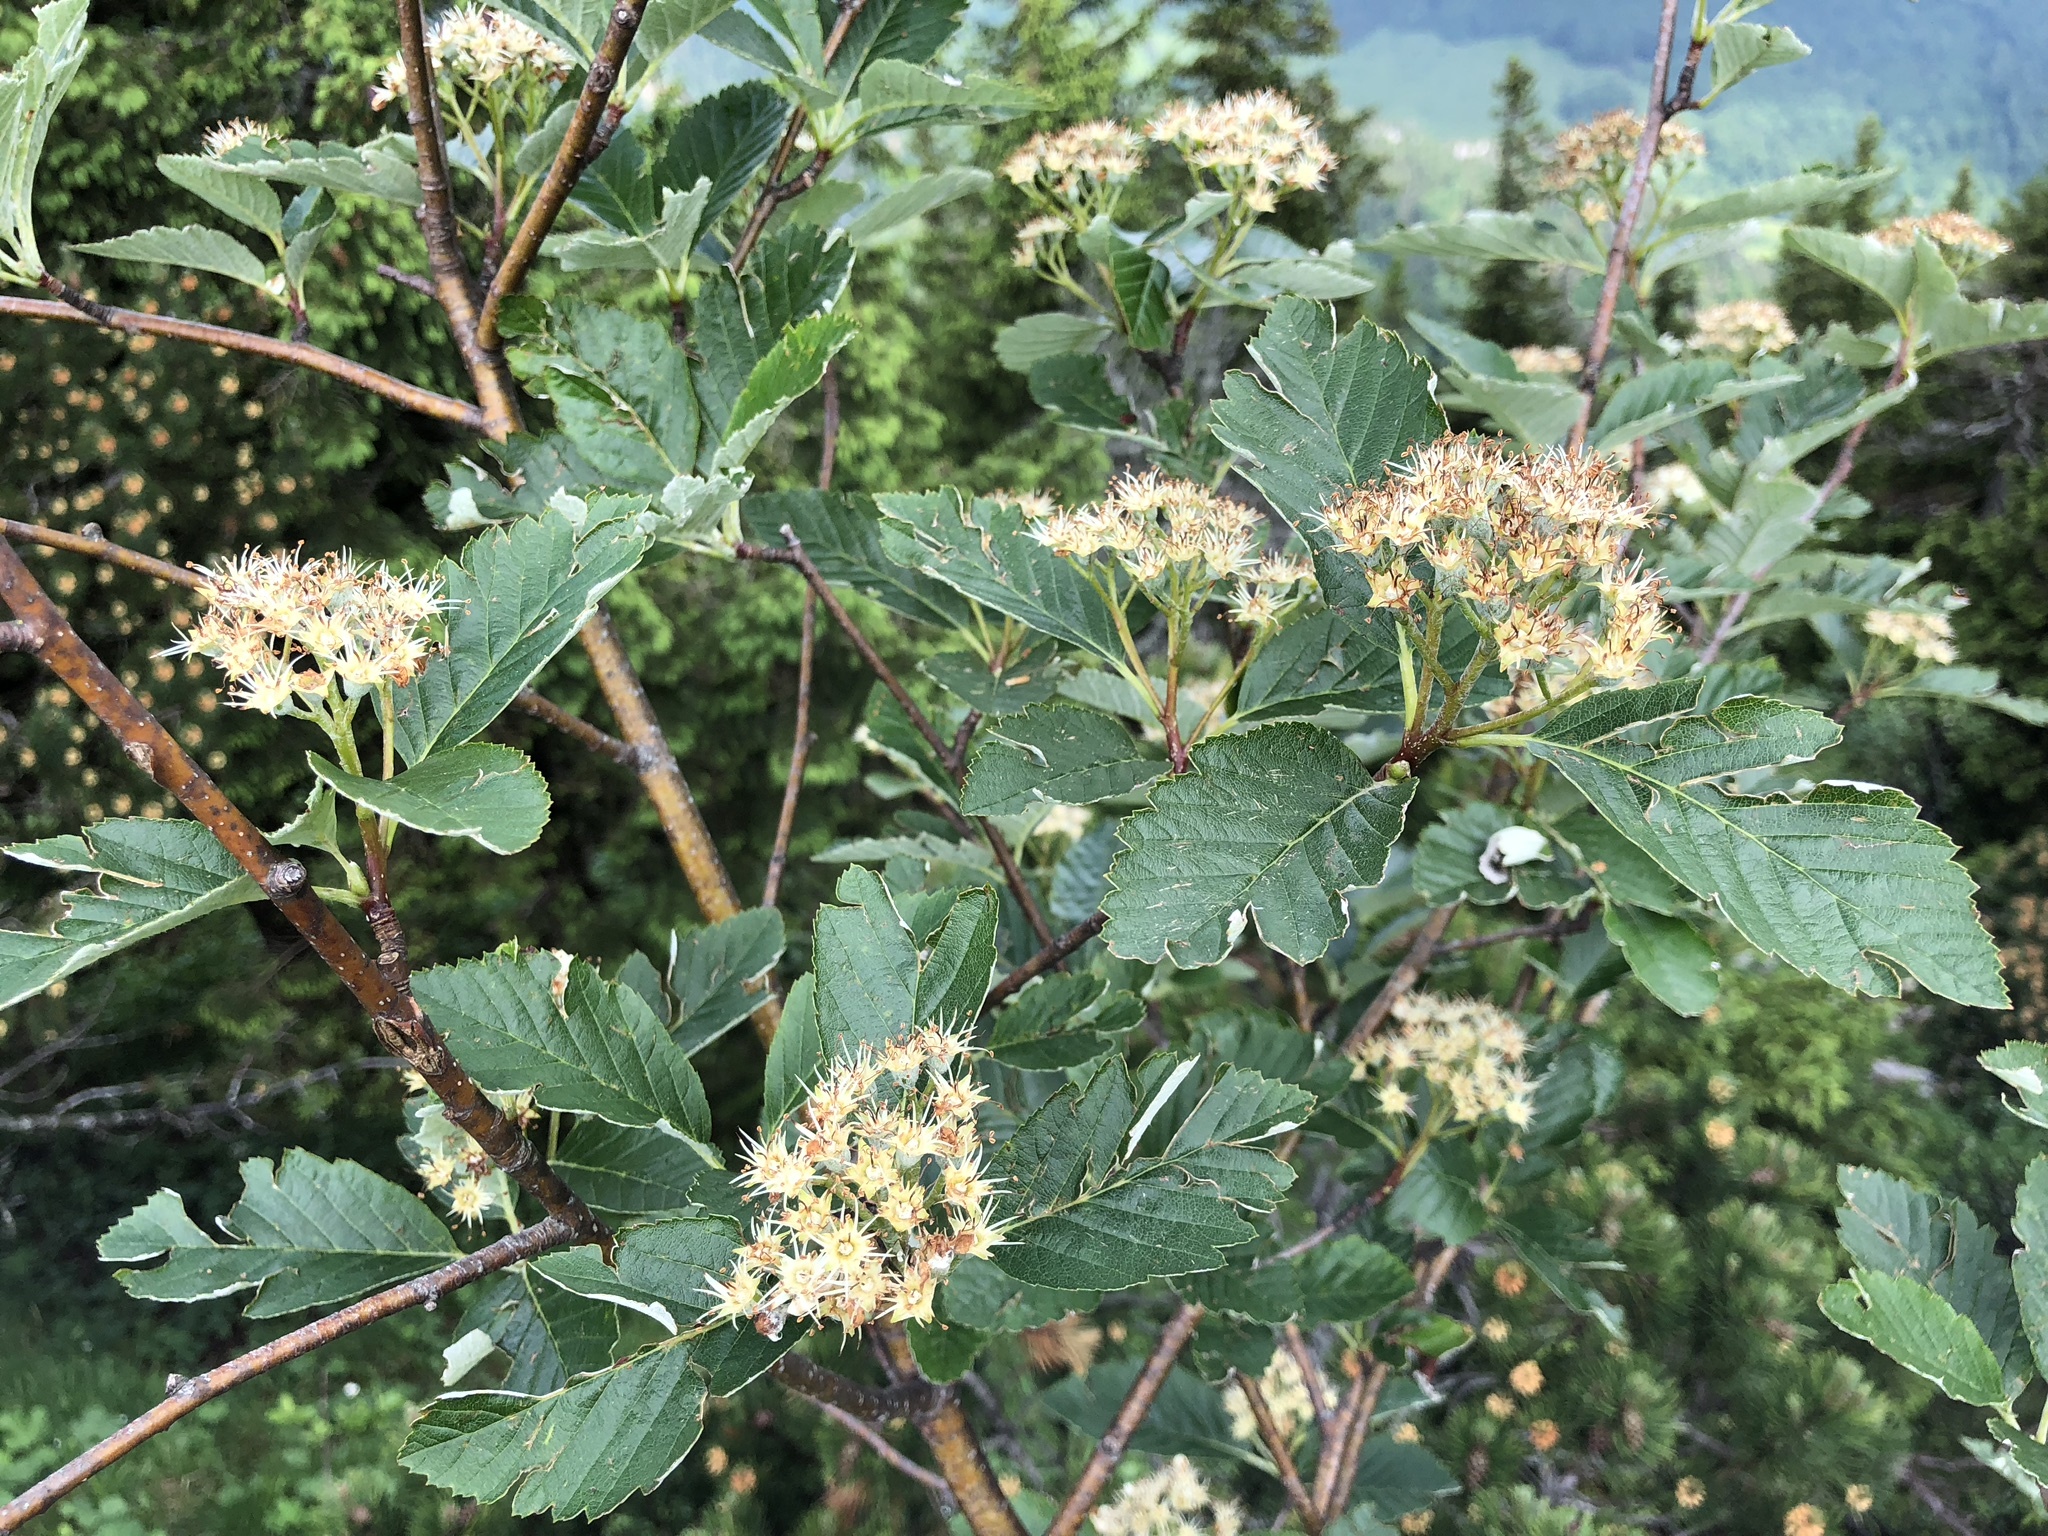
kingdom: Plantae
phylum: Tracheophyta
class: Magnoliopsida
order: Rosales
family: Rosaceae
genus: Hedlundia
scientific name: Hedlundia mougeotii
